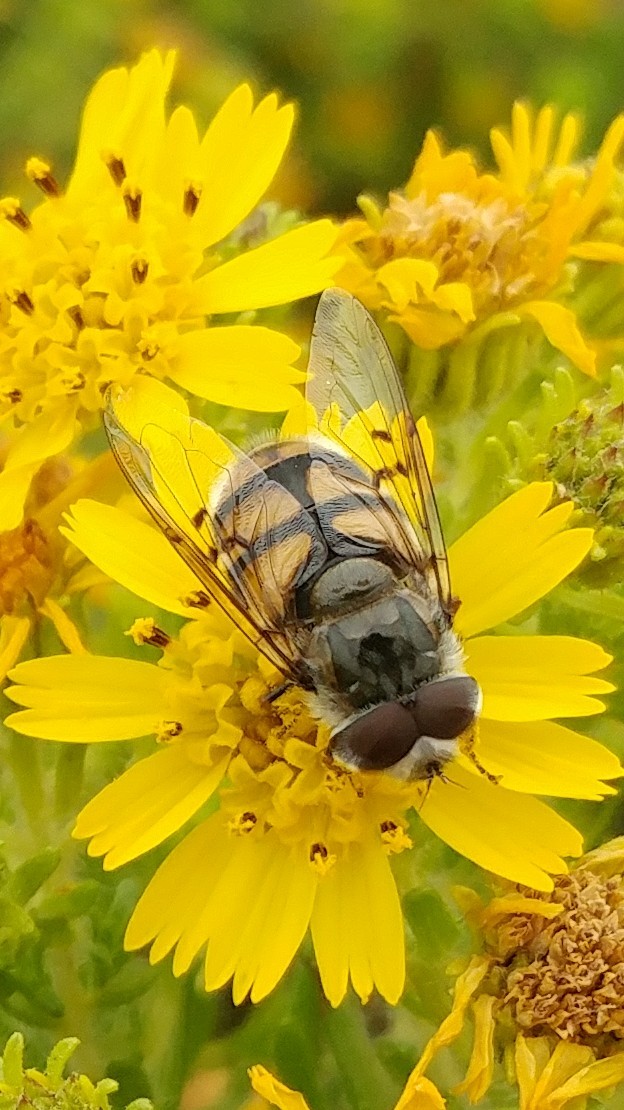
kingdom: Animalia
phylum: Arthropoda
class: Insecta
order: Diptera
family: Syrphidae
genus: Copestylum
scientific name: Copestylum avidum
